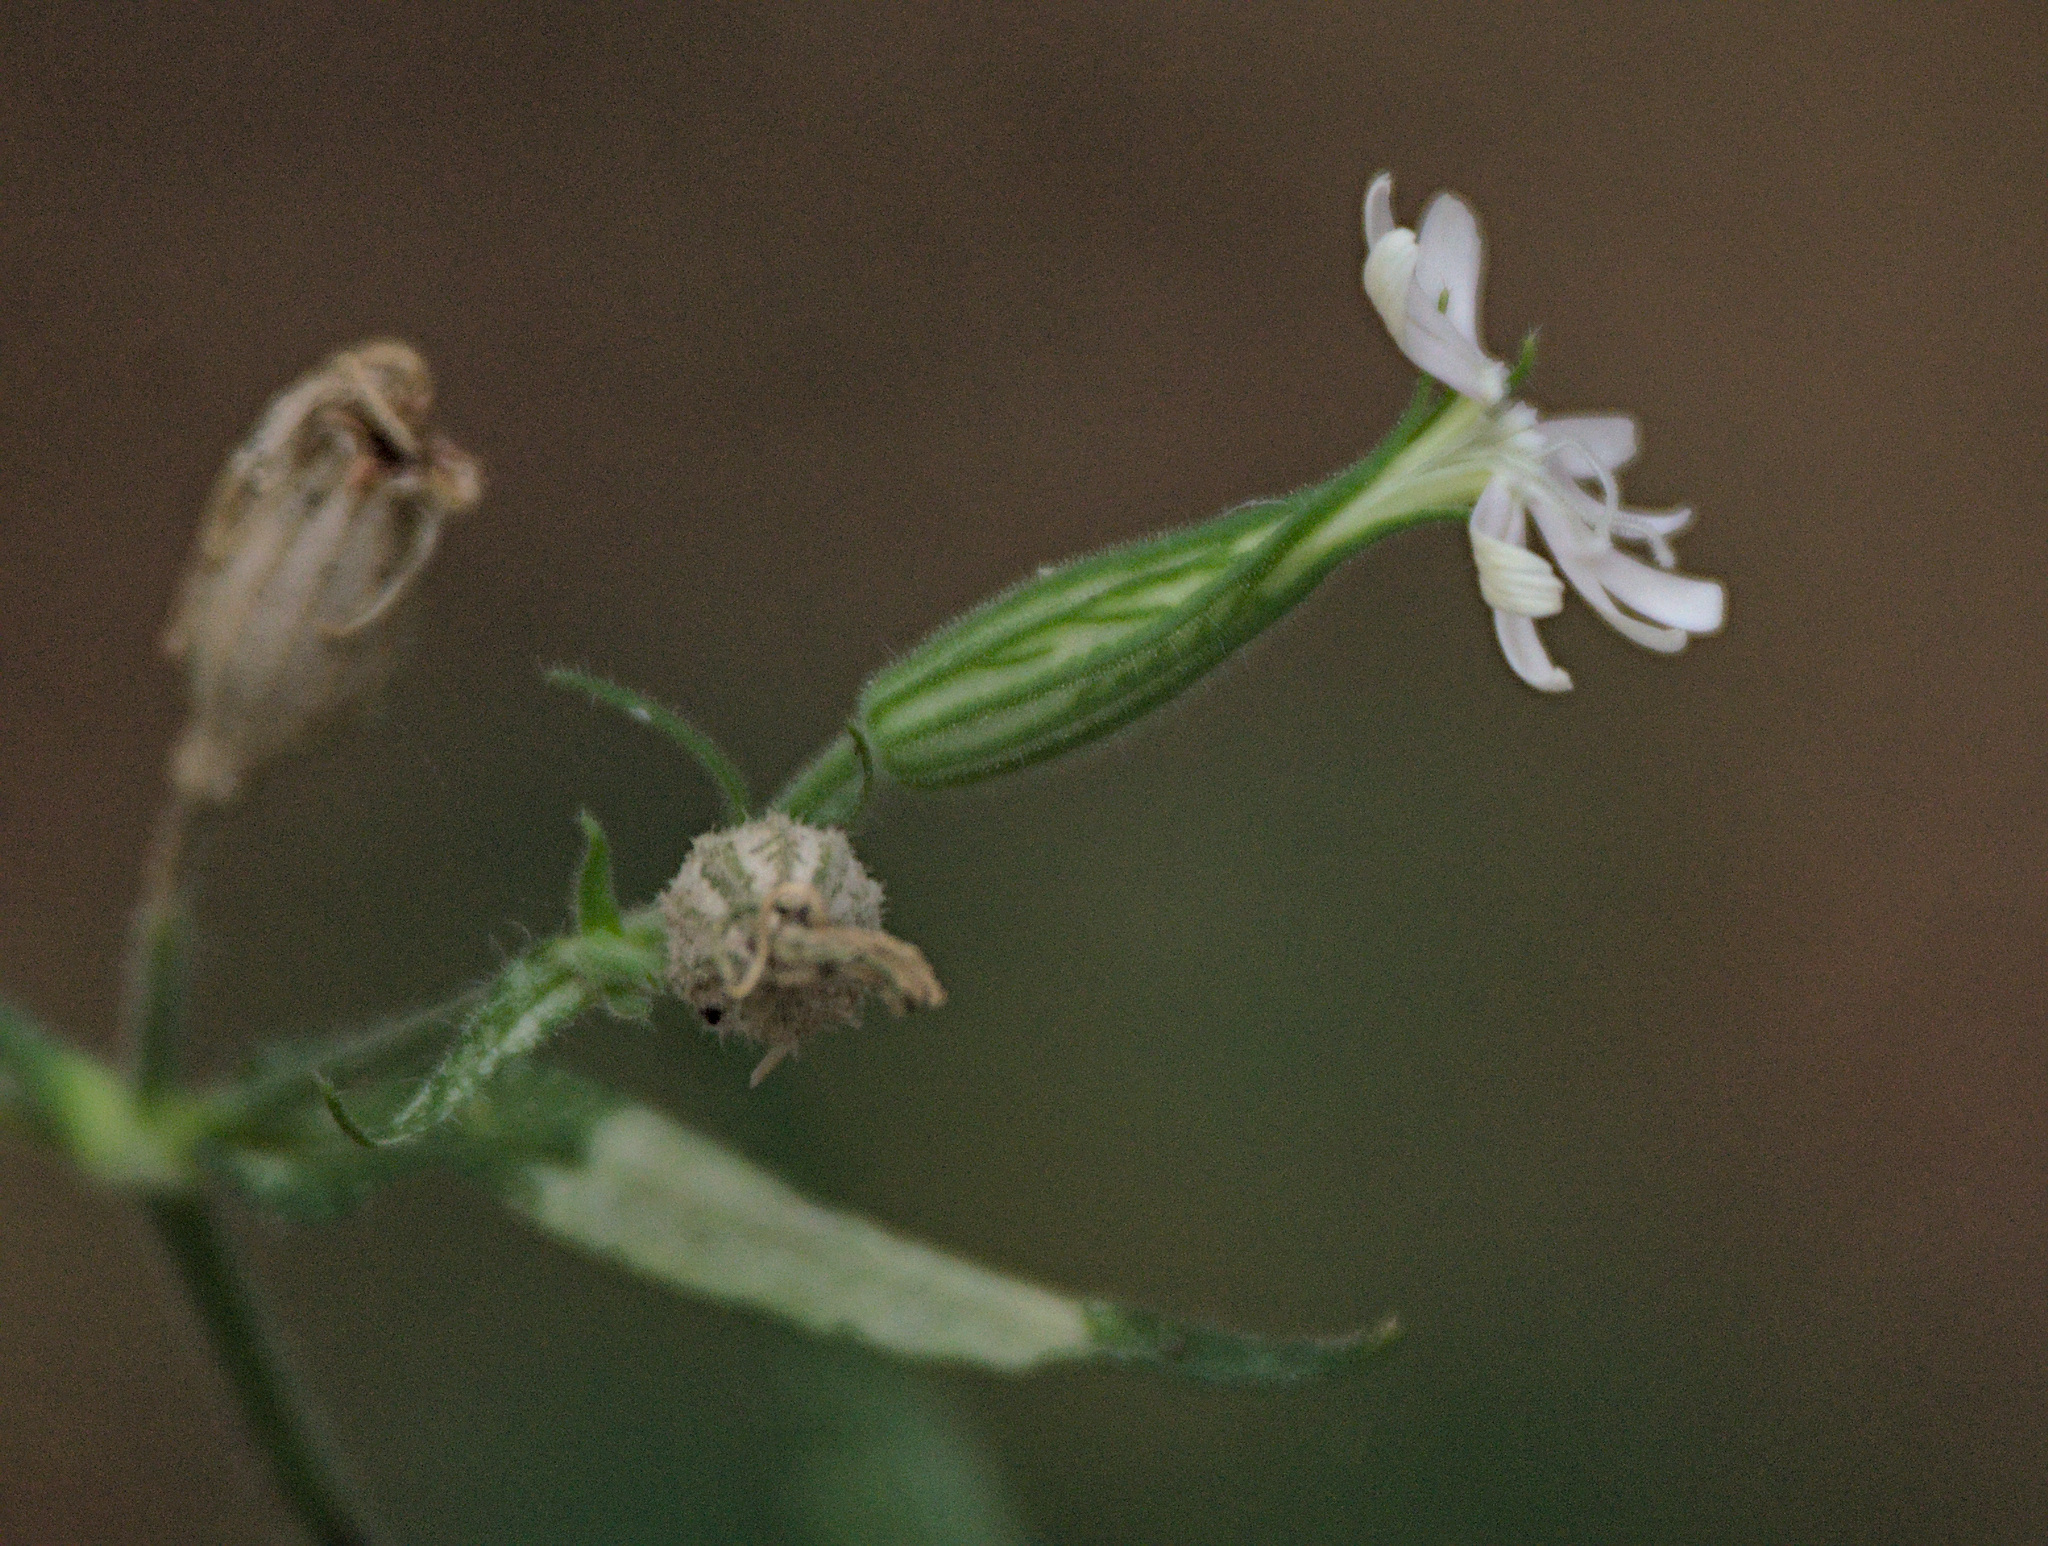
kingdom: Plantae
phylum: Tracheophyta
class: Magnoliopsida
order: Caryophyllales
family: Caryophyllaceae
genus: Silene
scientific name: Silene noctiflora
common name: Night-flowering catchfly
